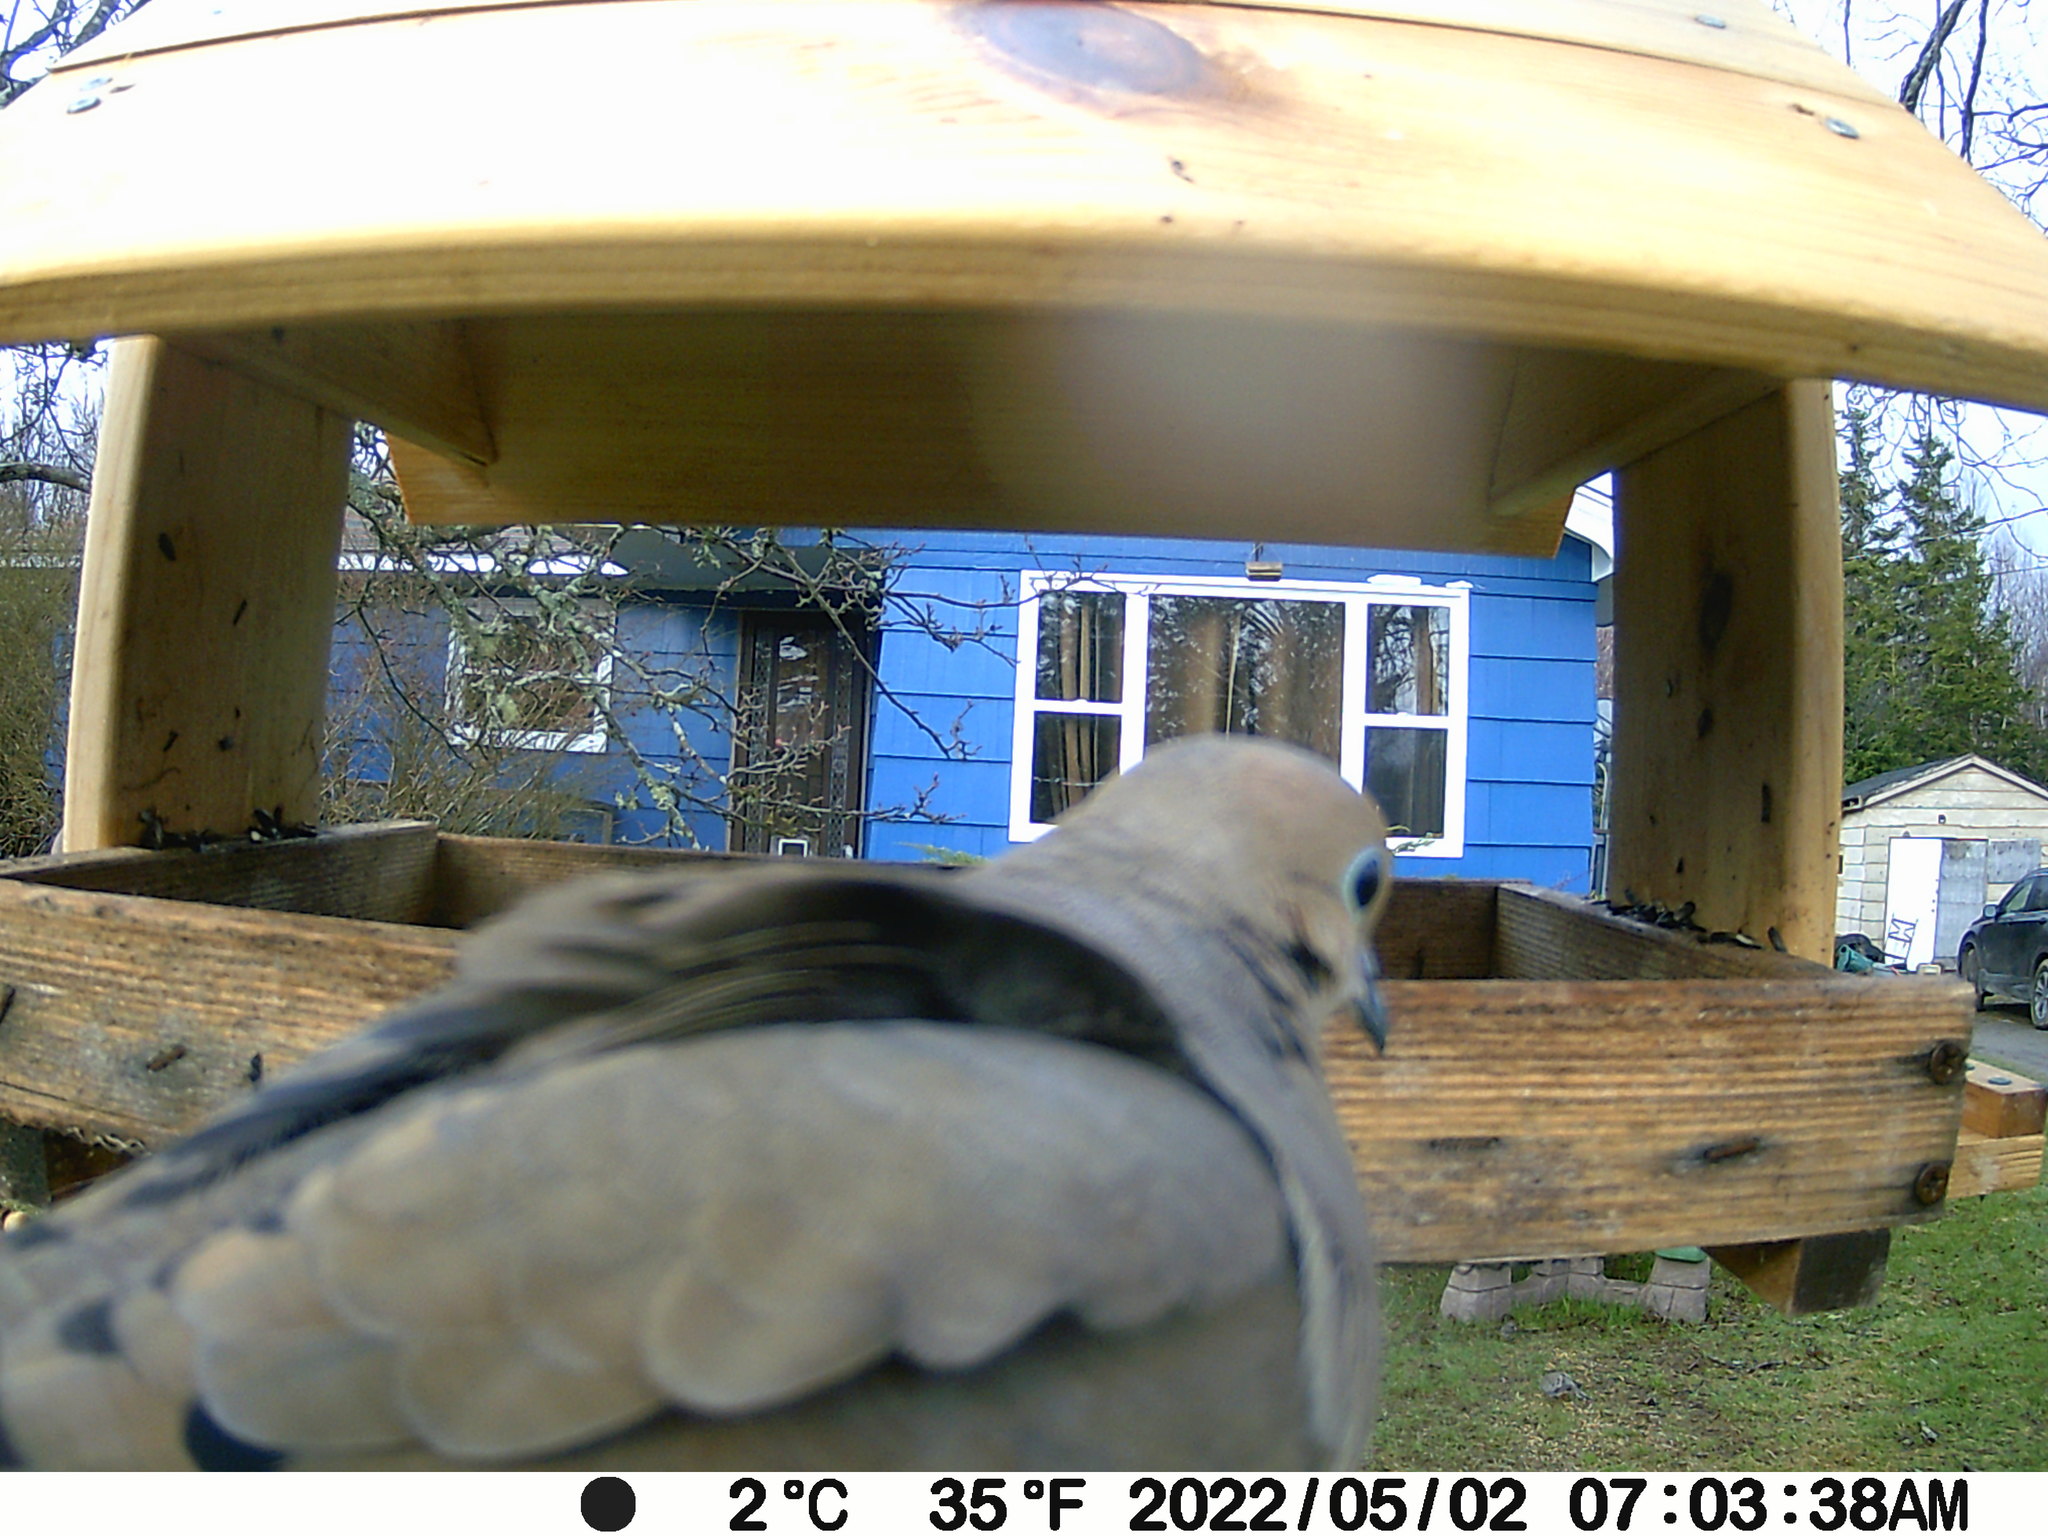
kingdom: Animalia
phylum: Chordata
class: Aves
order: Columbiformes
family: Columbidae
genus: Zenaida
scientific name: Zenaida macroura
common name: Mourning dove
